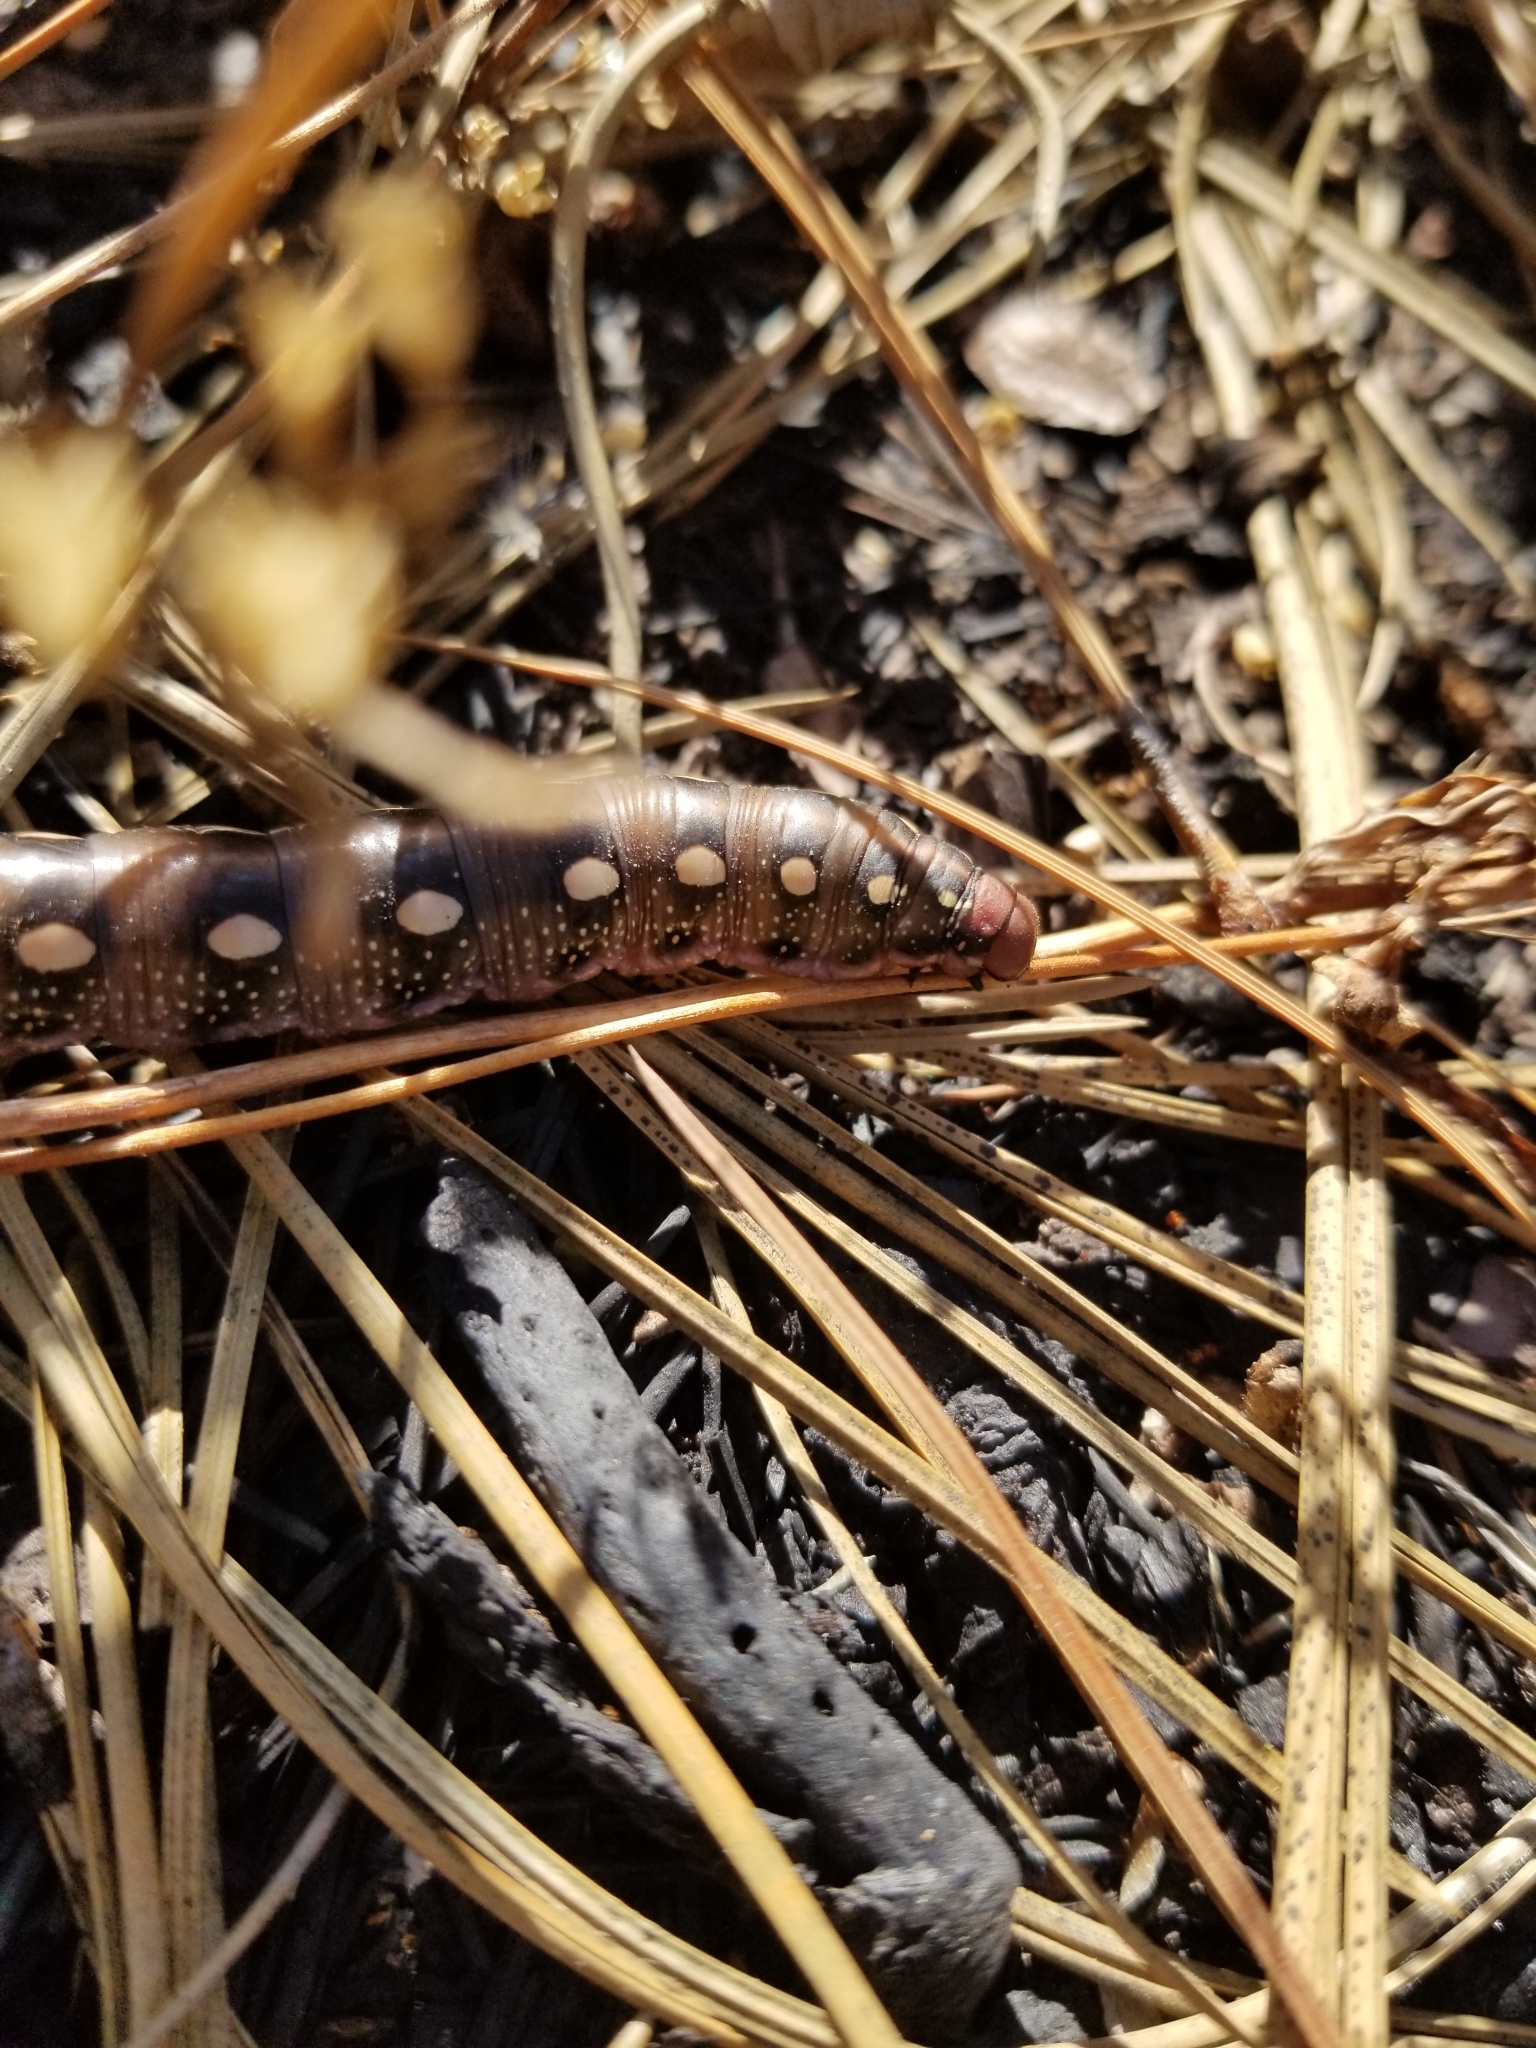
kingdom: Animalia
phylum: Arthropoda
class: Insecta
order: Lepidoptera
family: Sphingidae
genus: Hyles
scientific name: Hyles gallii
